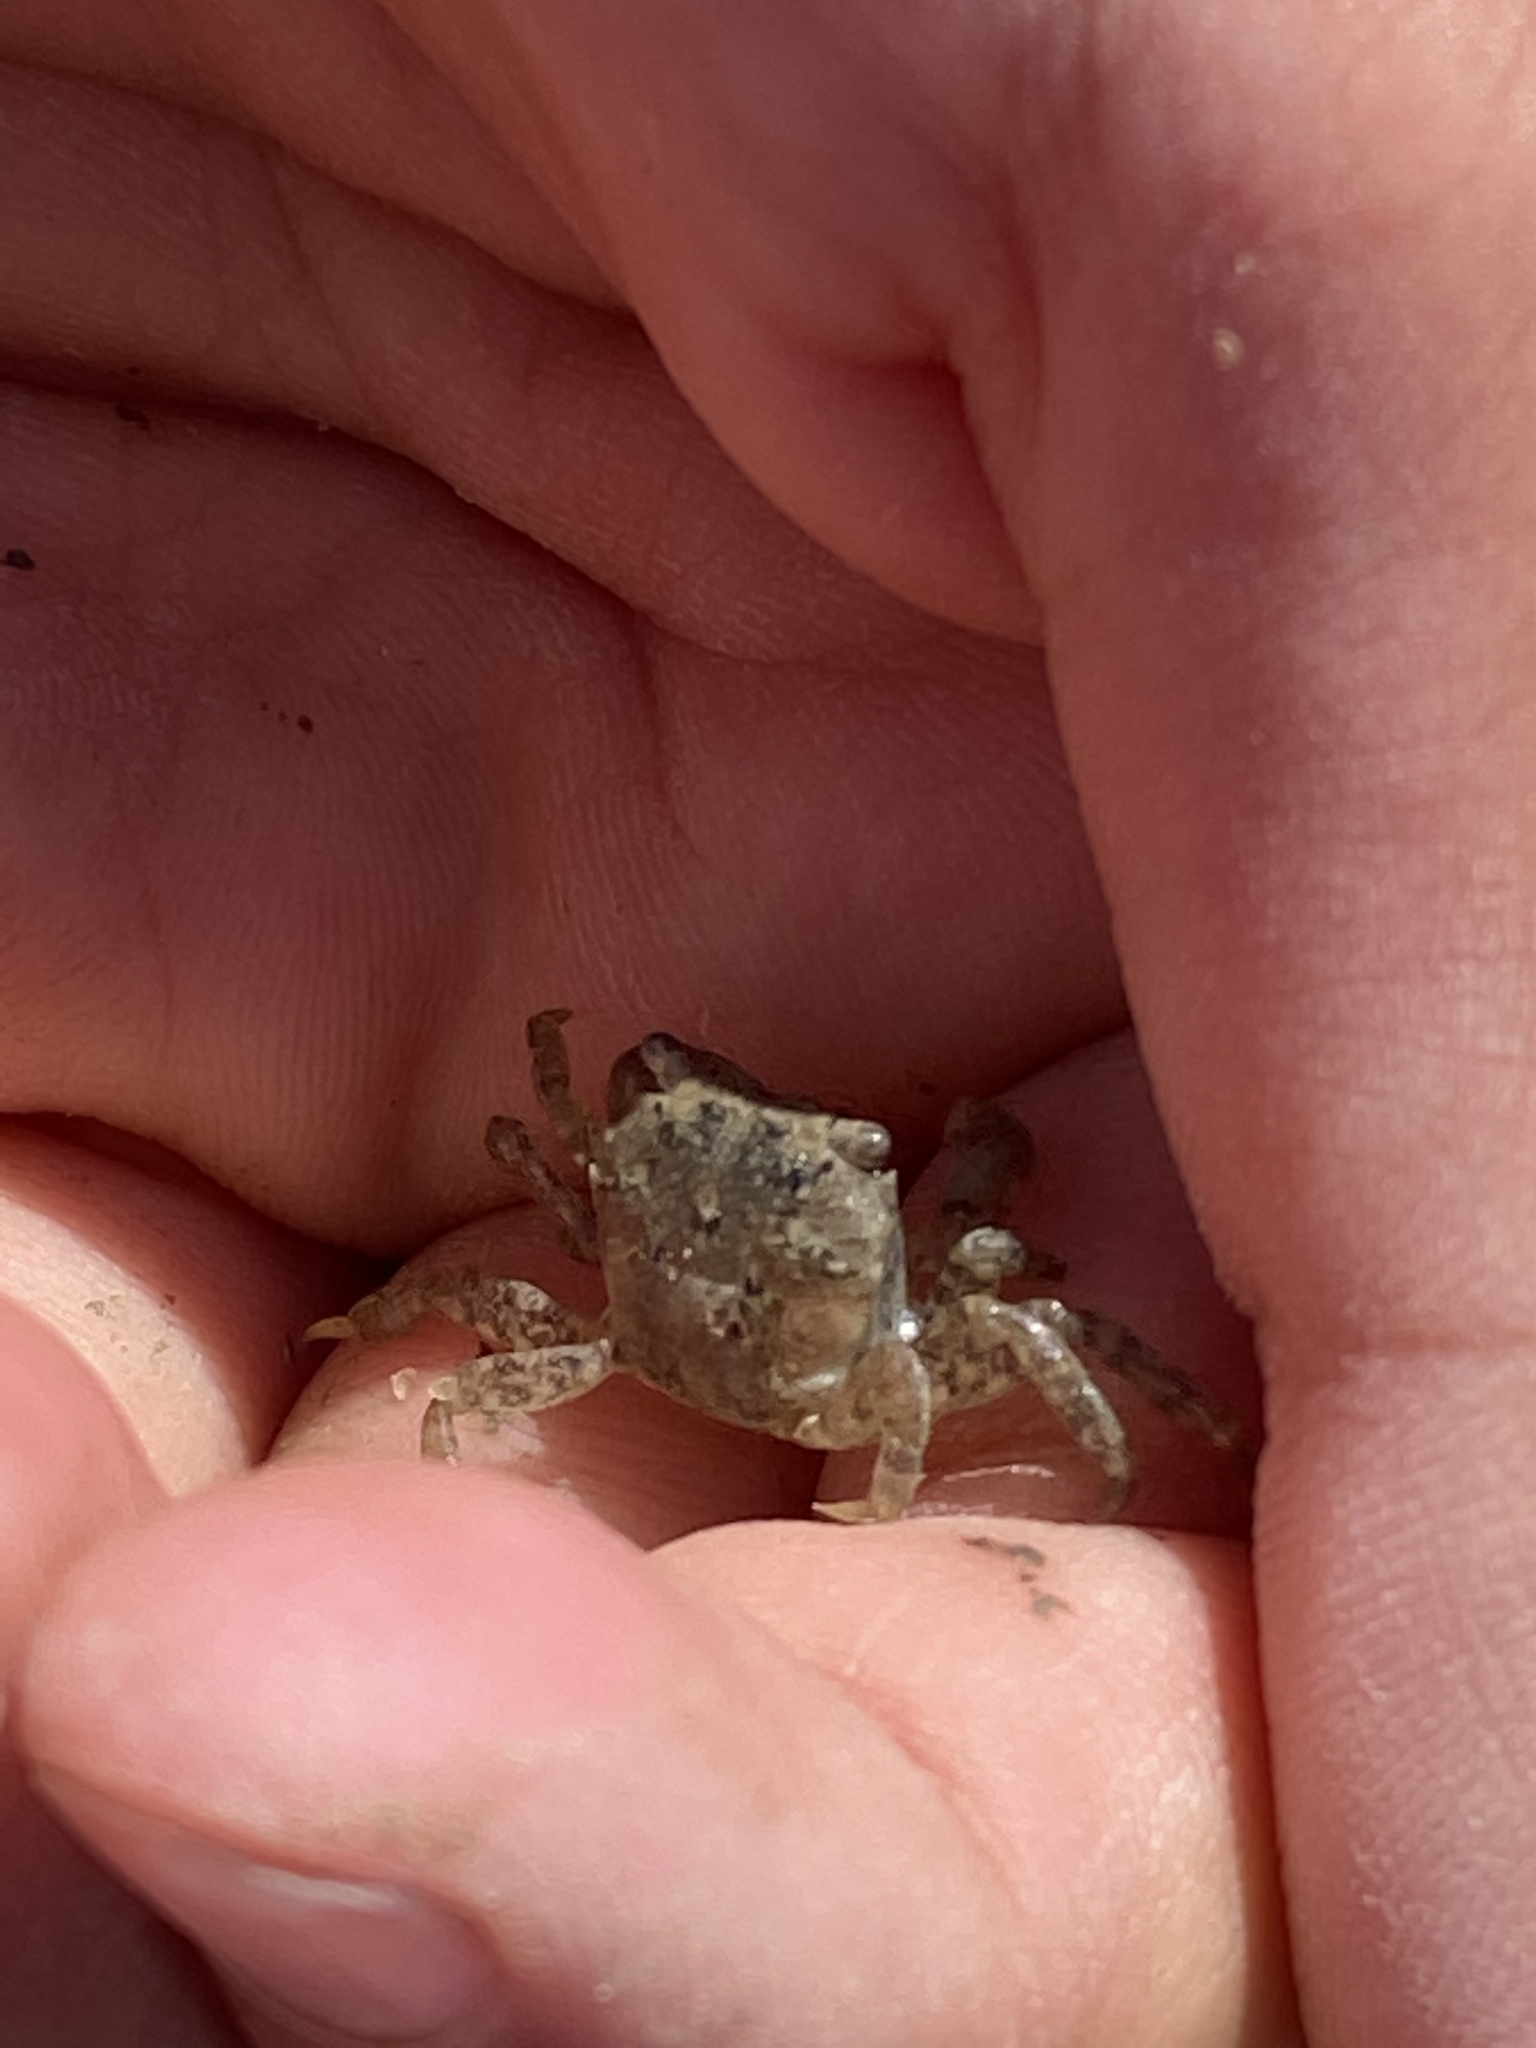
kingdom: Animalia
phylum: Arthropoda
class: Malacostraca
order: Decapoda
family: Varunidae
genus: Hemigrapsus
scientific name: Hemigrapsus oregonensis
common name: Yellow shore crab
